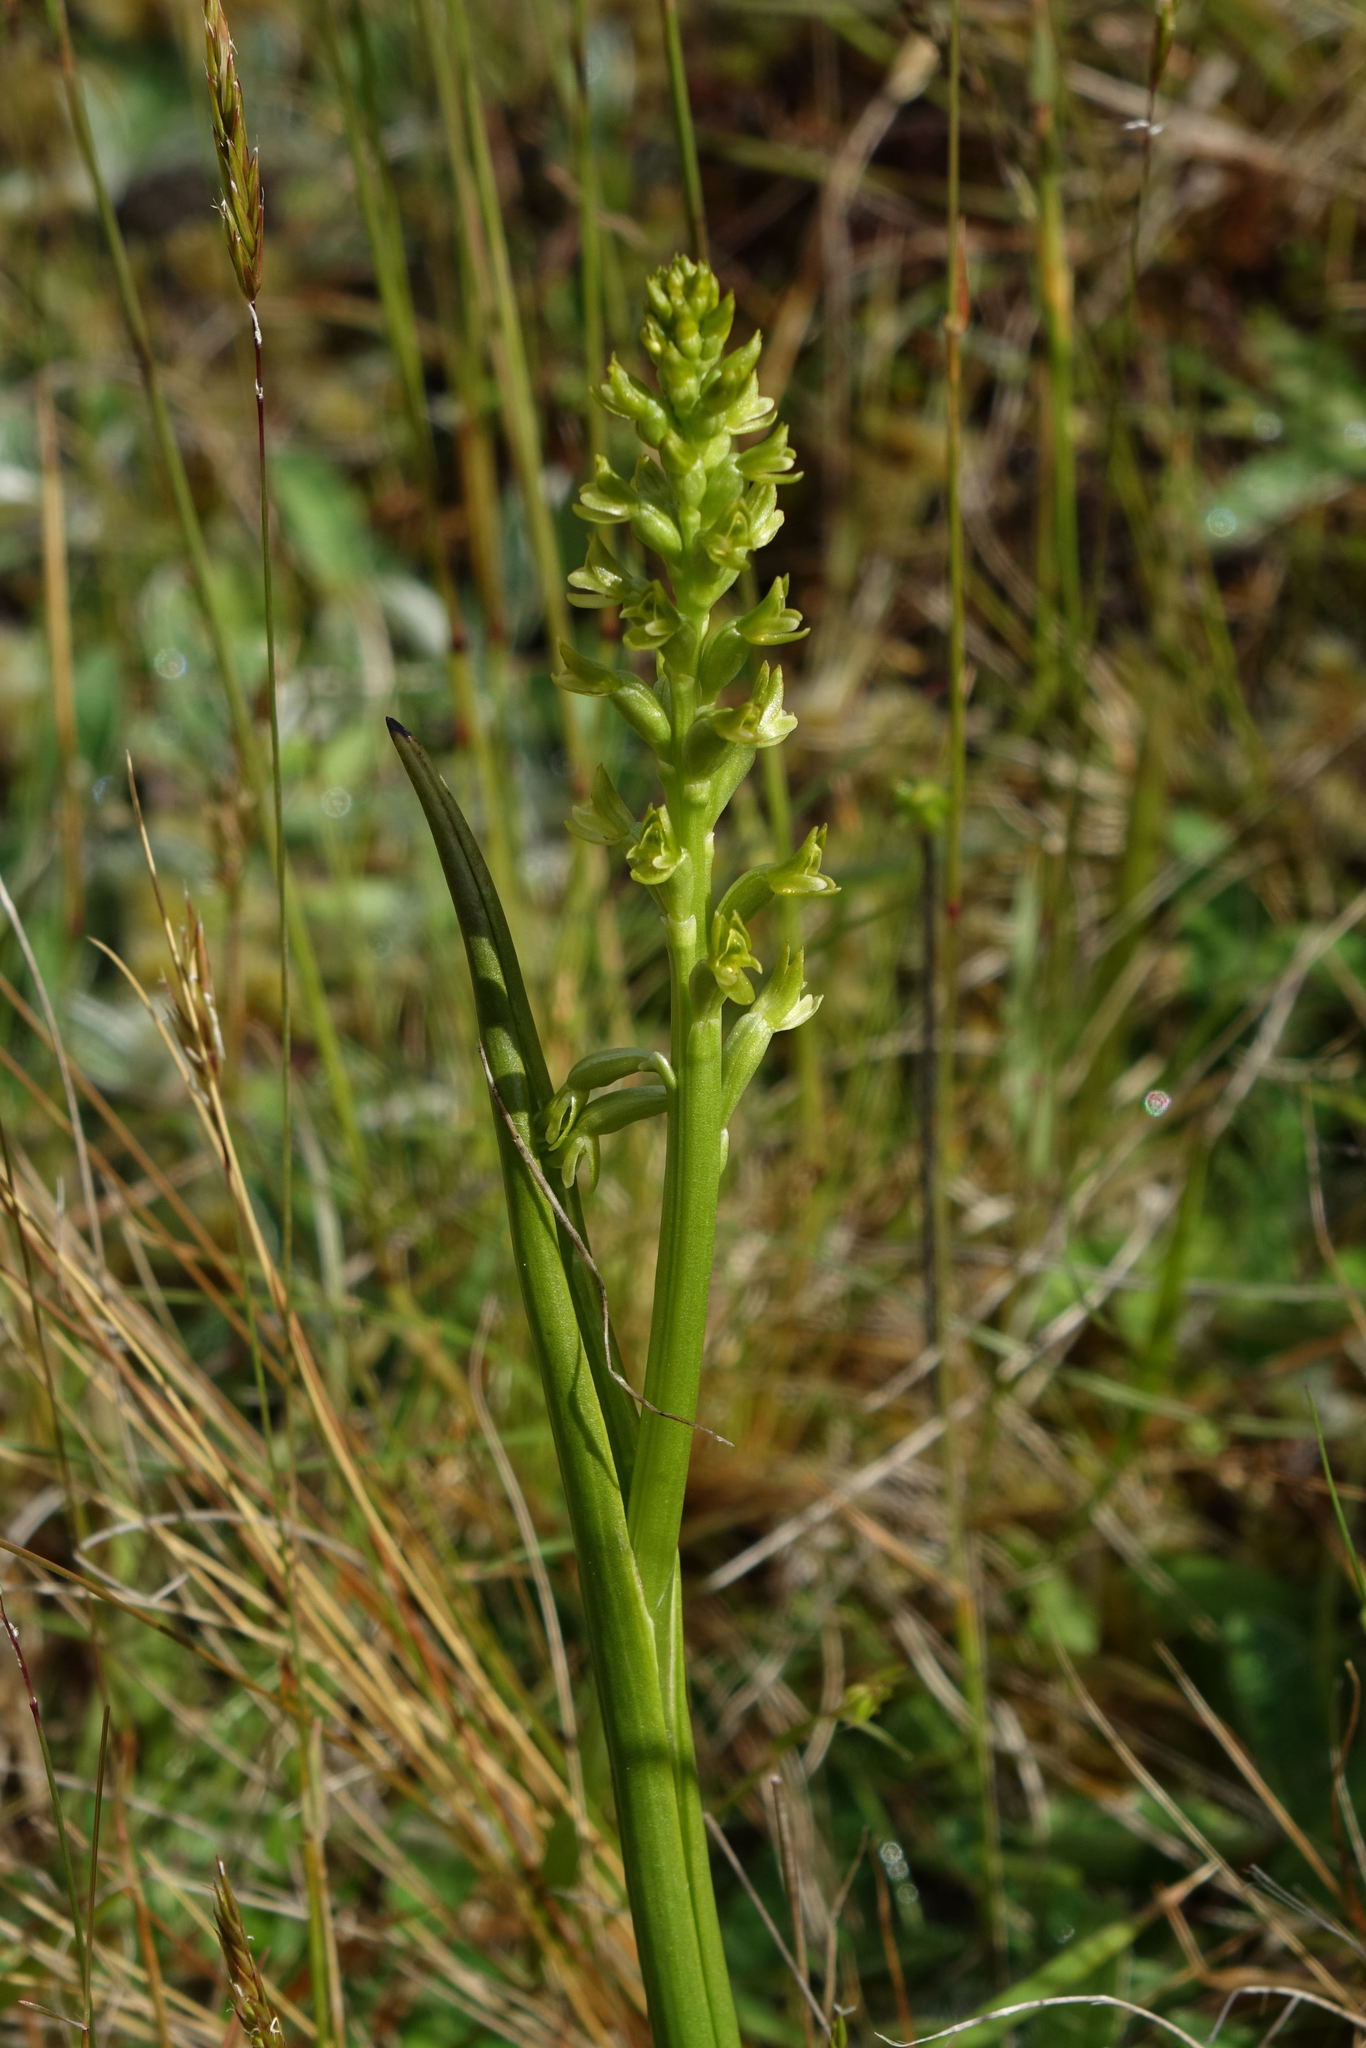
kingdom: Plantae
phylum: Tracheophyta
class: Liliopsida
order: Asparagales
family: Orchidaceae
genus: Prasophyllum
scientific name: Prasophyllum colensoi
